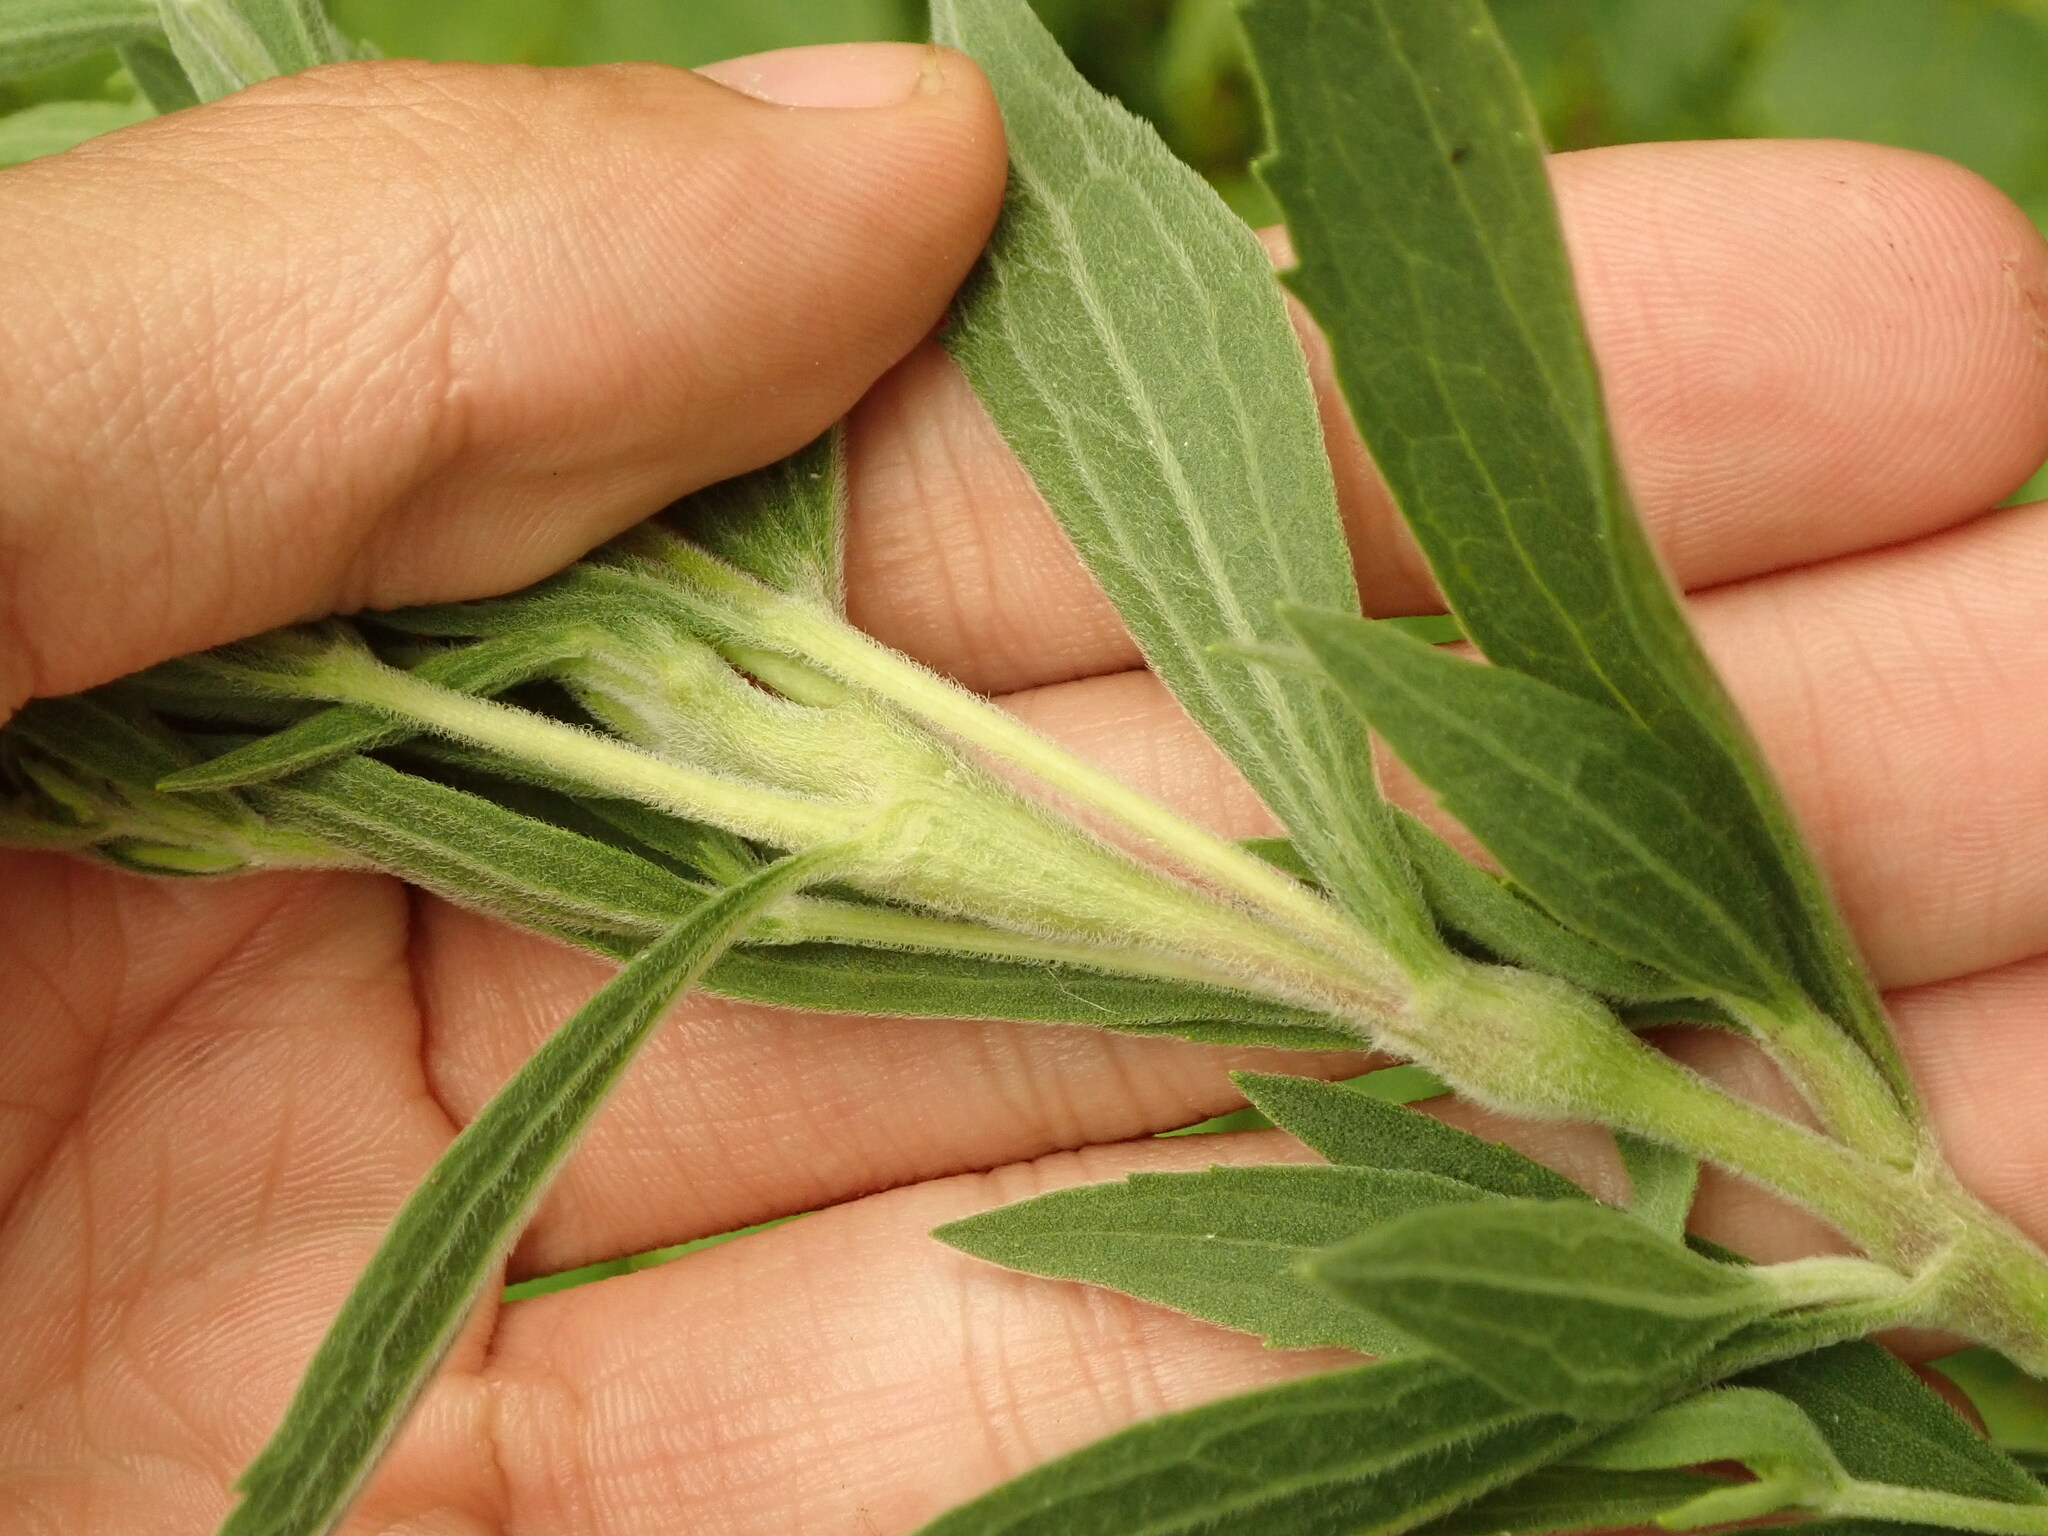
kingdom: Animalia
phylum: Arthropoda
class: Insecta
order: Diptera
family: Cecidomyiidae
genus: Neolasioptera
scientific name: Neolasioptera perfoliata
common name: Boneset stem midge
